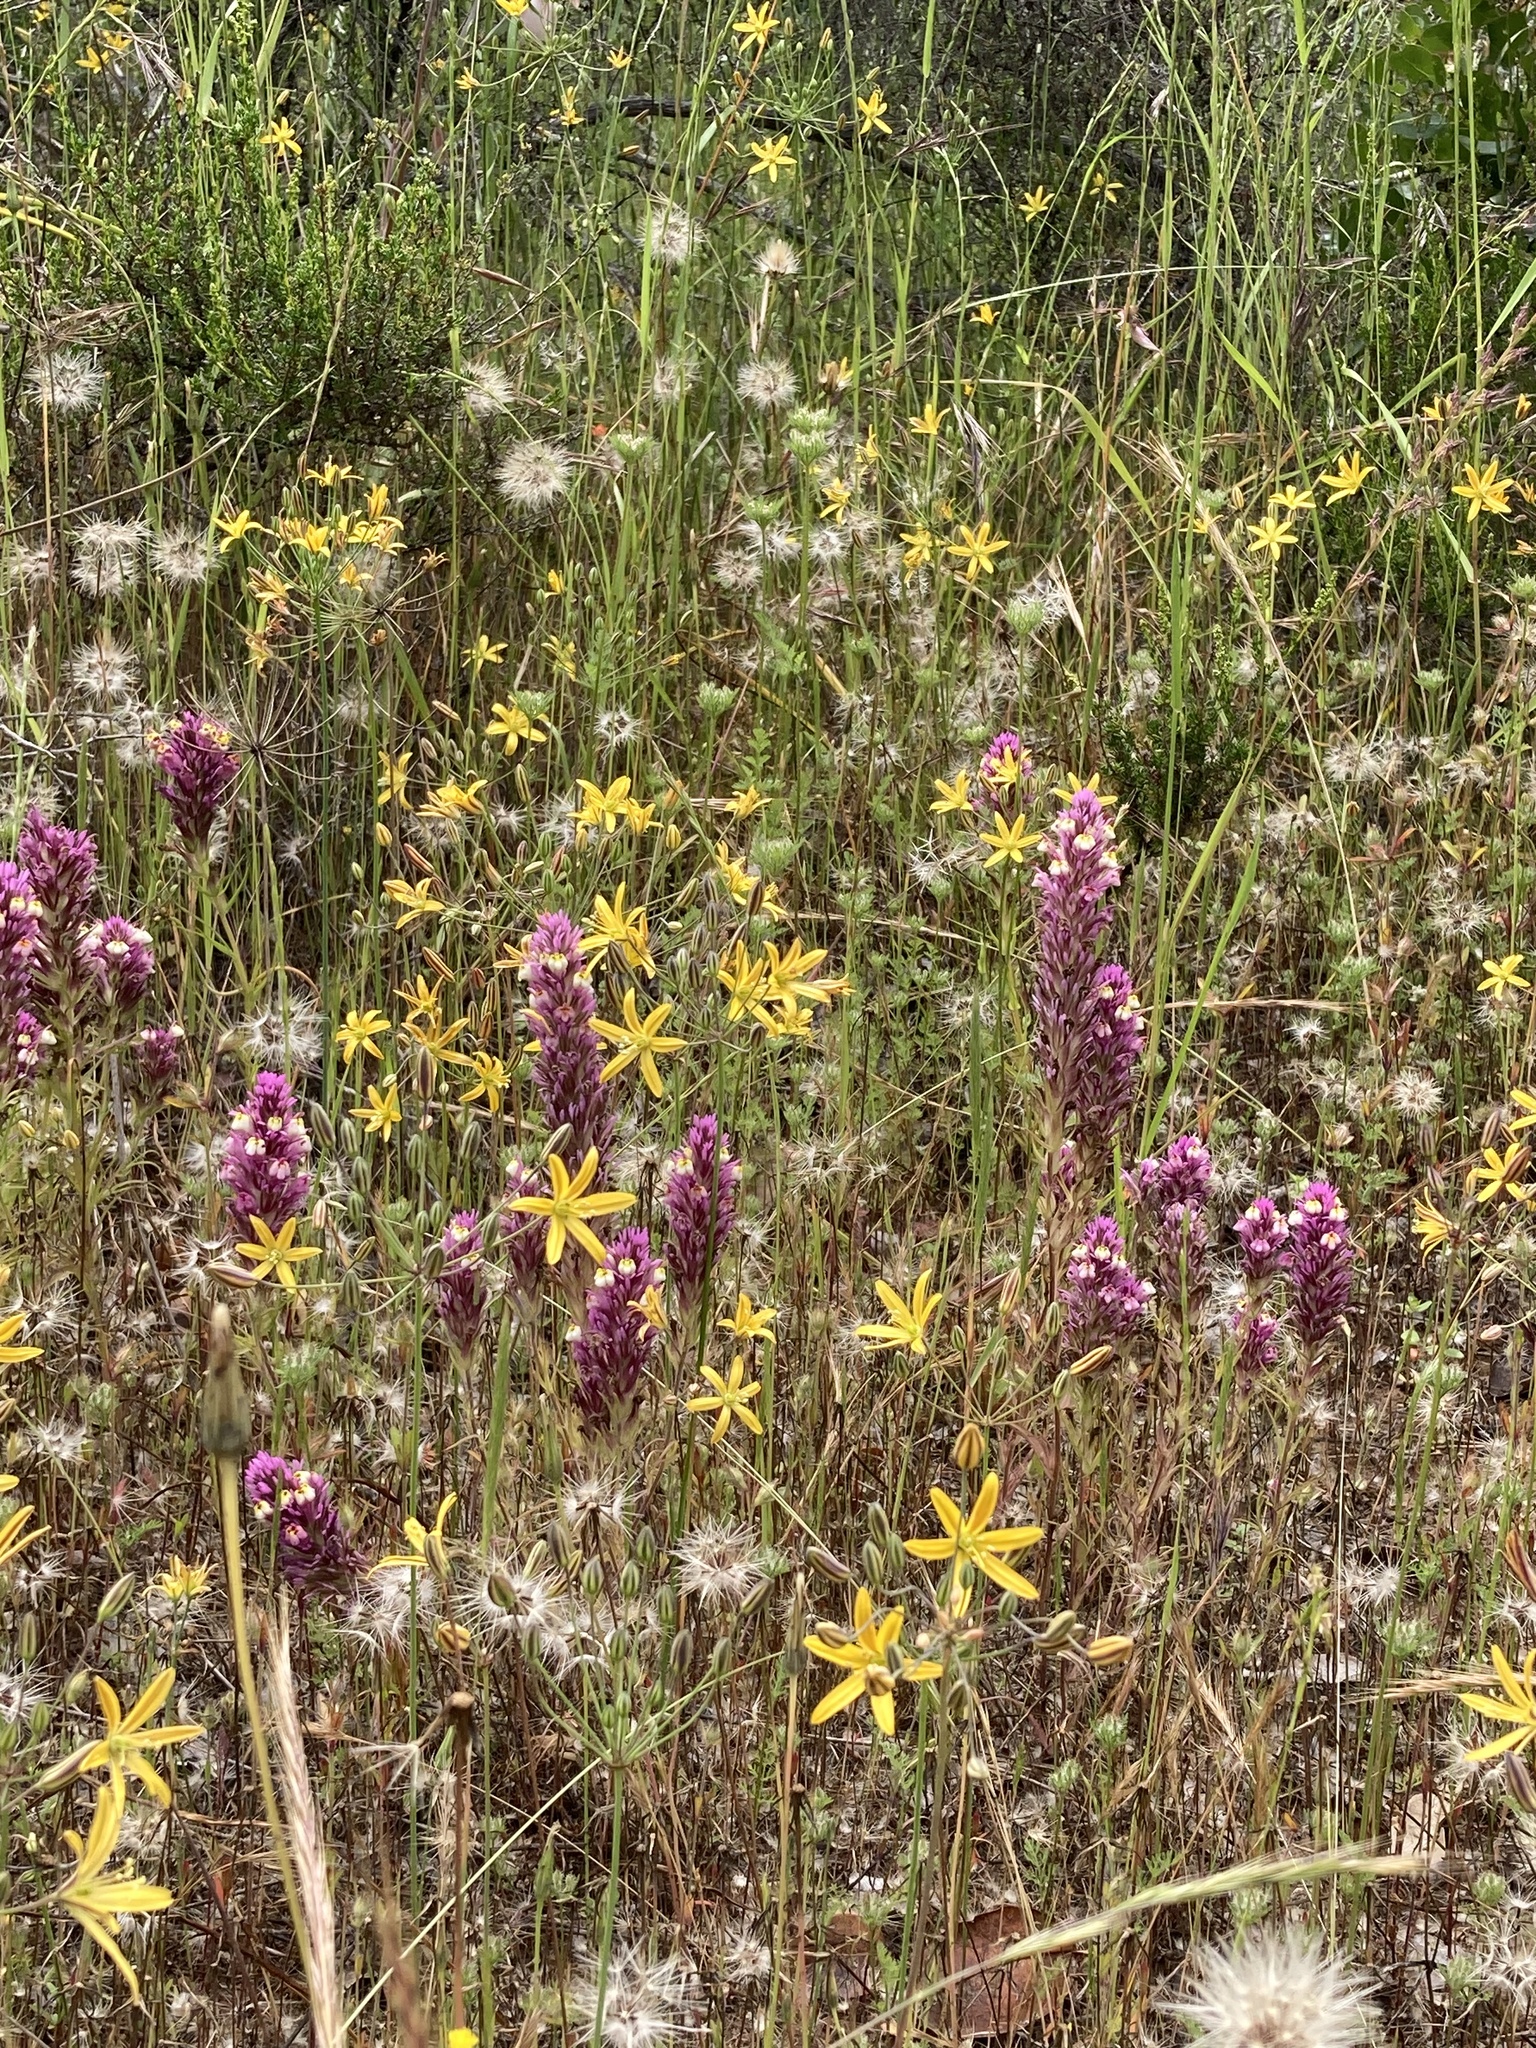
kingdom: Plantae
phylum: Tracheophyta
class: Magnoliopsida
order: Lamiales
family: Orobanchaceae
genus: Castilleja
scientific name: Castilleja densiflora
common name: Dense-flower indian paintbrush
